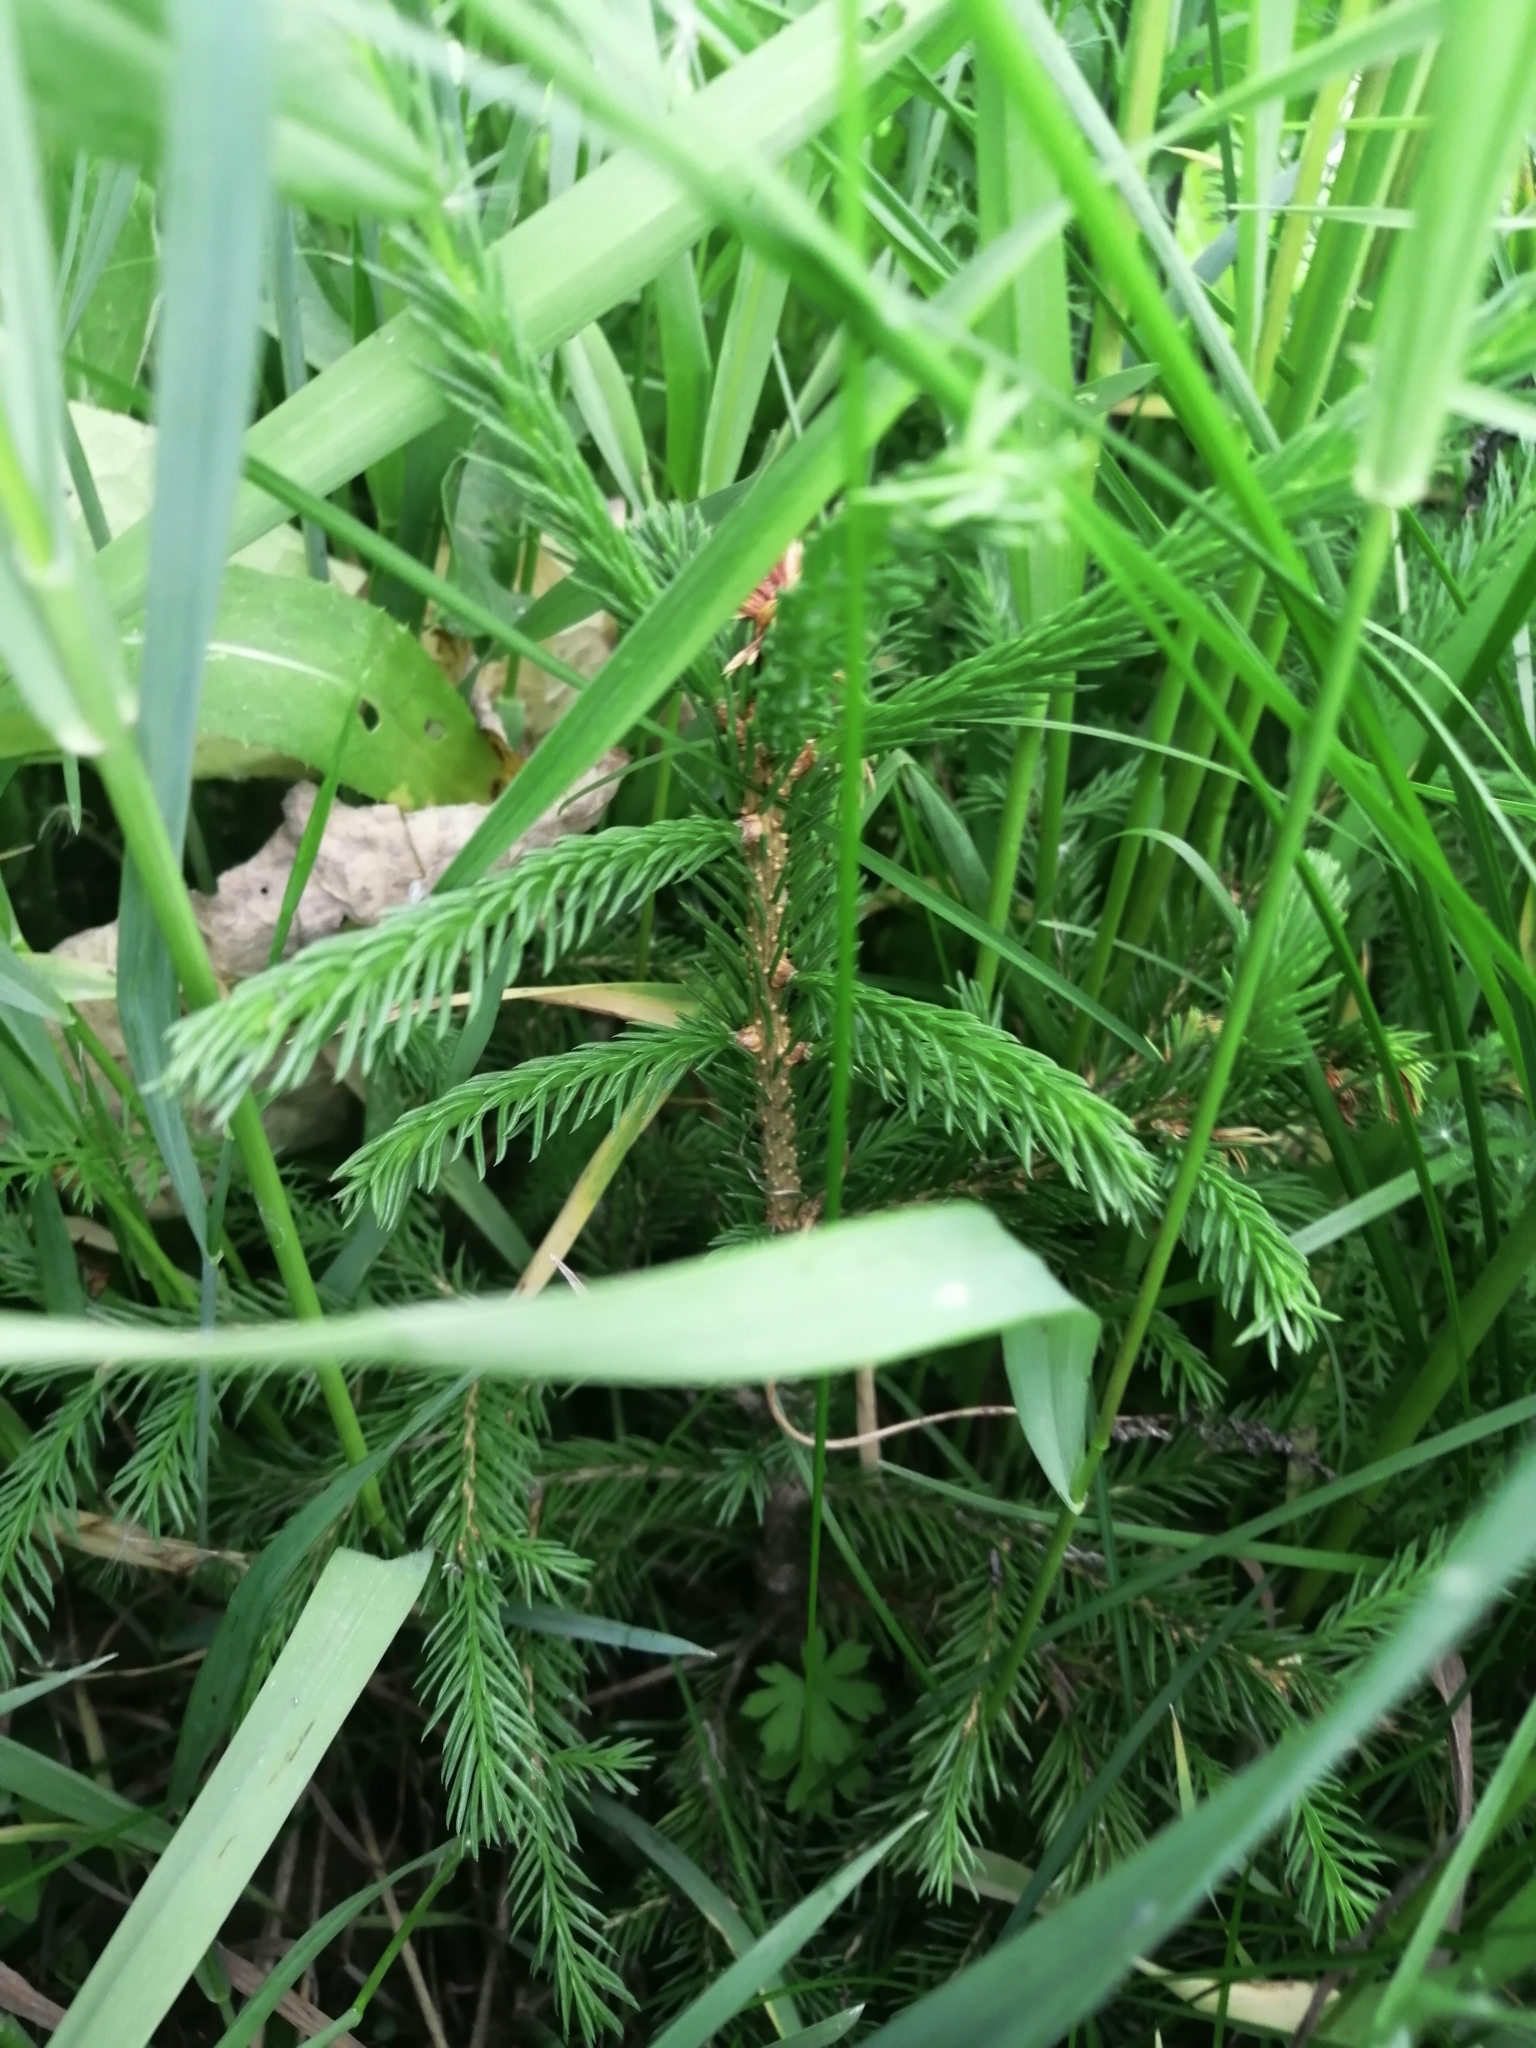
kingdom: Plantae
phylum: Tracheophyta
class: Pinopsida
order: Pinales
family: Pinaceae
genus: Picea
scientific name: Picea obovata
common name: Siberian spruce
